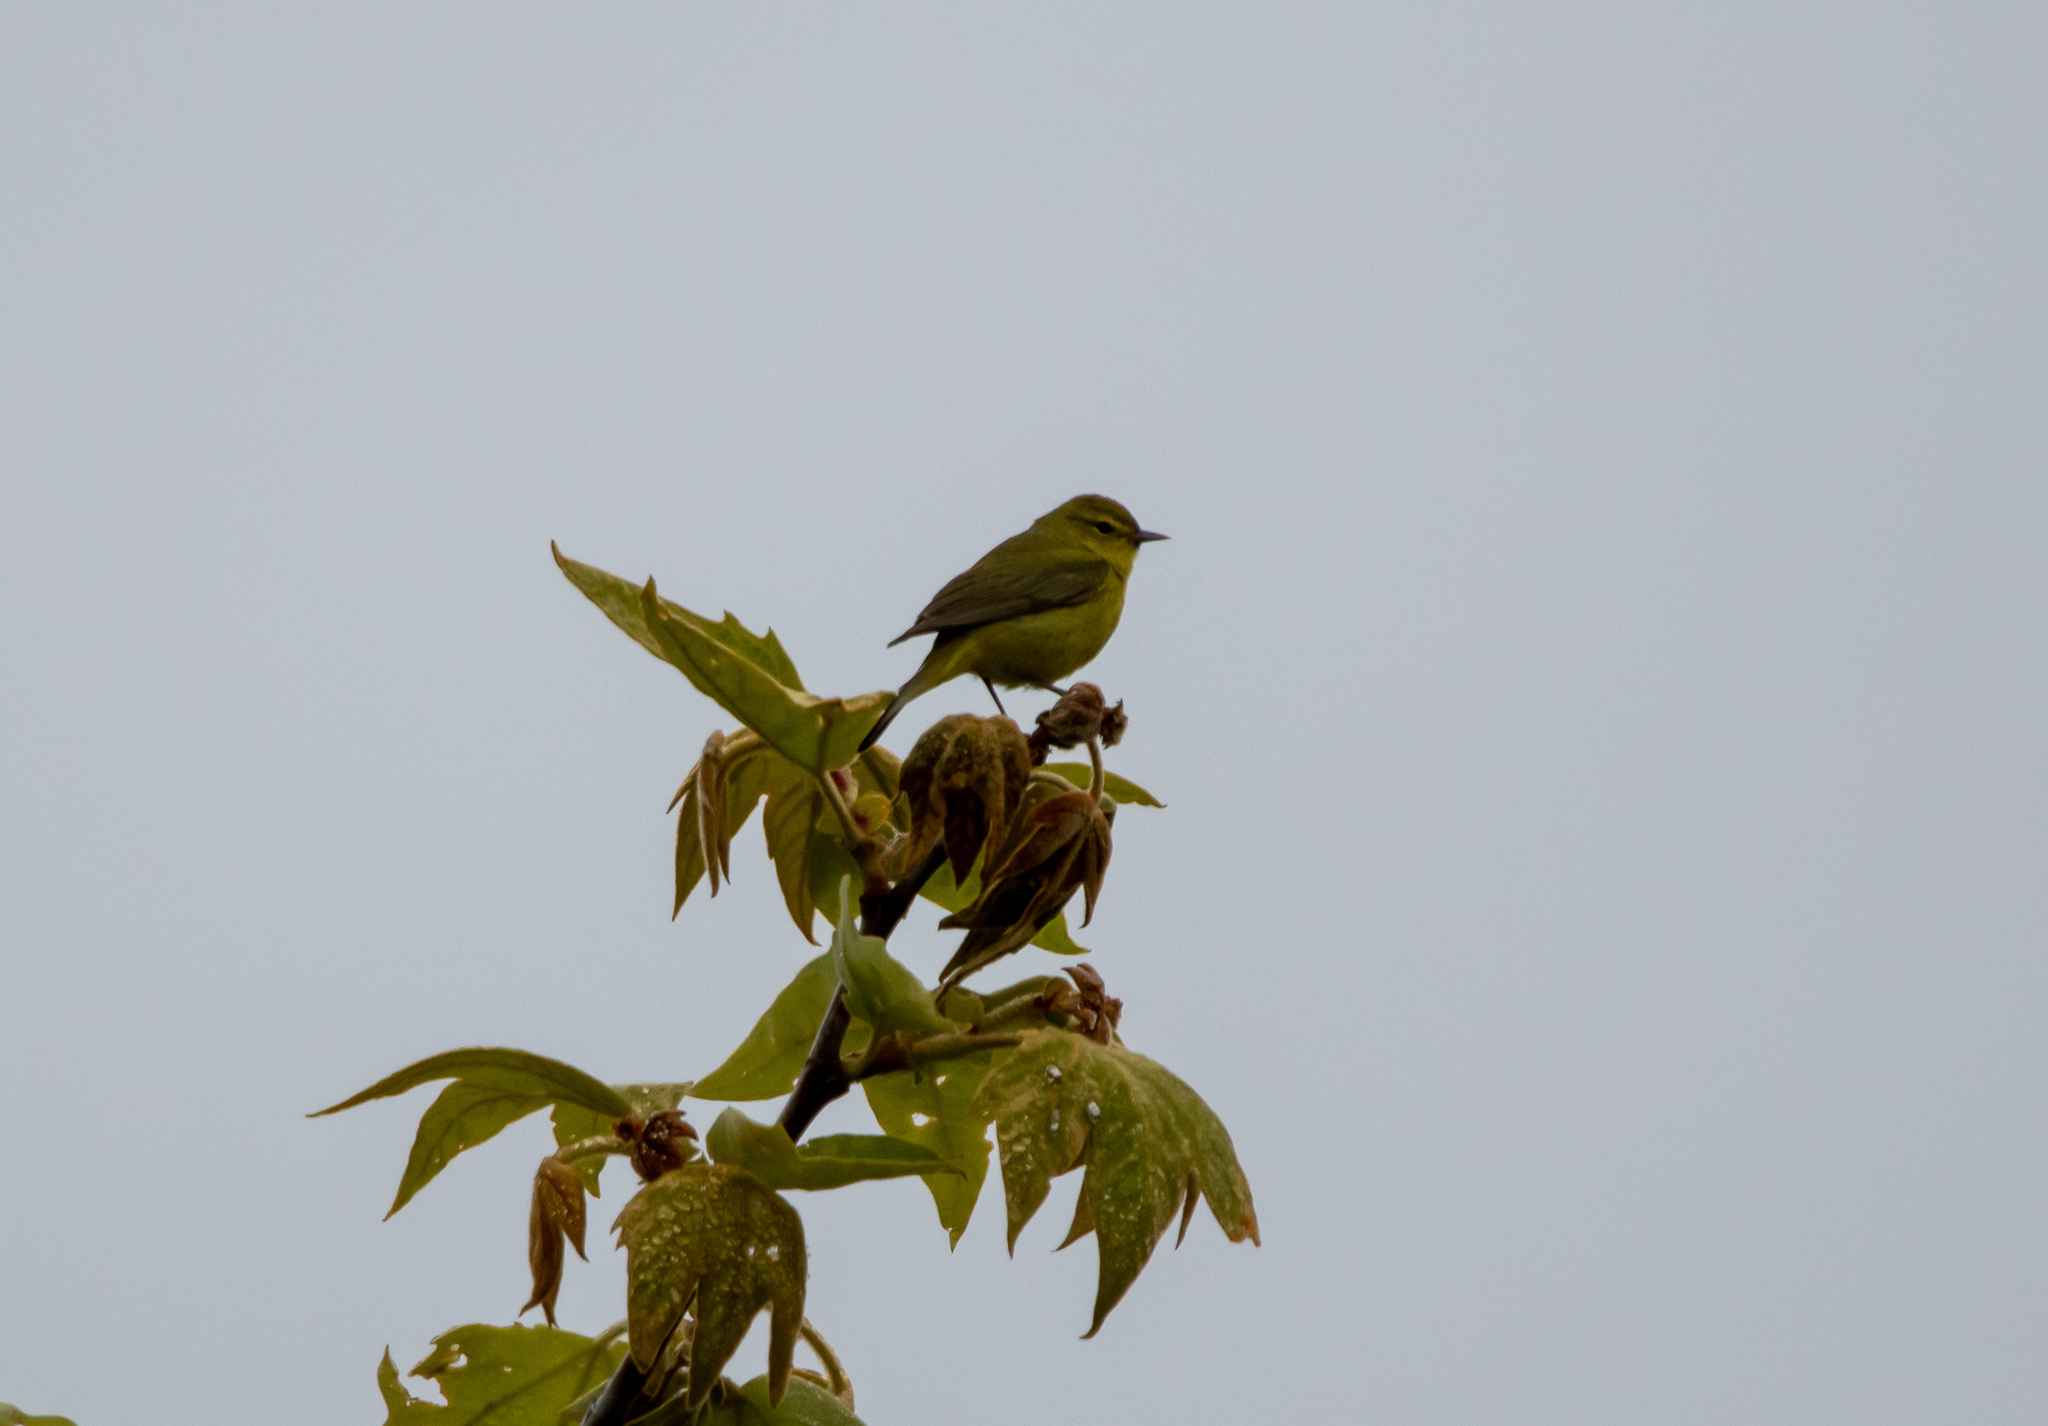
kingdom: Animalia
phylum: Chordata
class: Aves
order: Passeriformes
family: Parulidae
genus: Leiothlypis
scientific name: Leiothlypis celata
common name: Orange-crowned warbler
